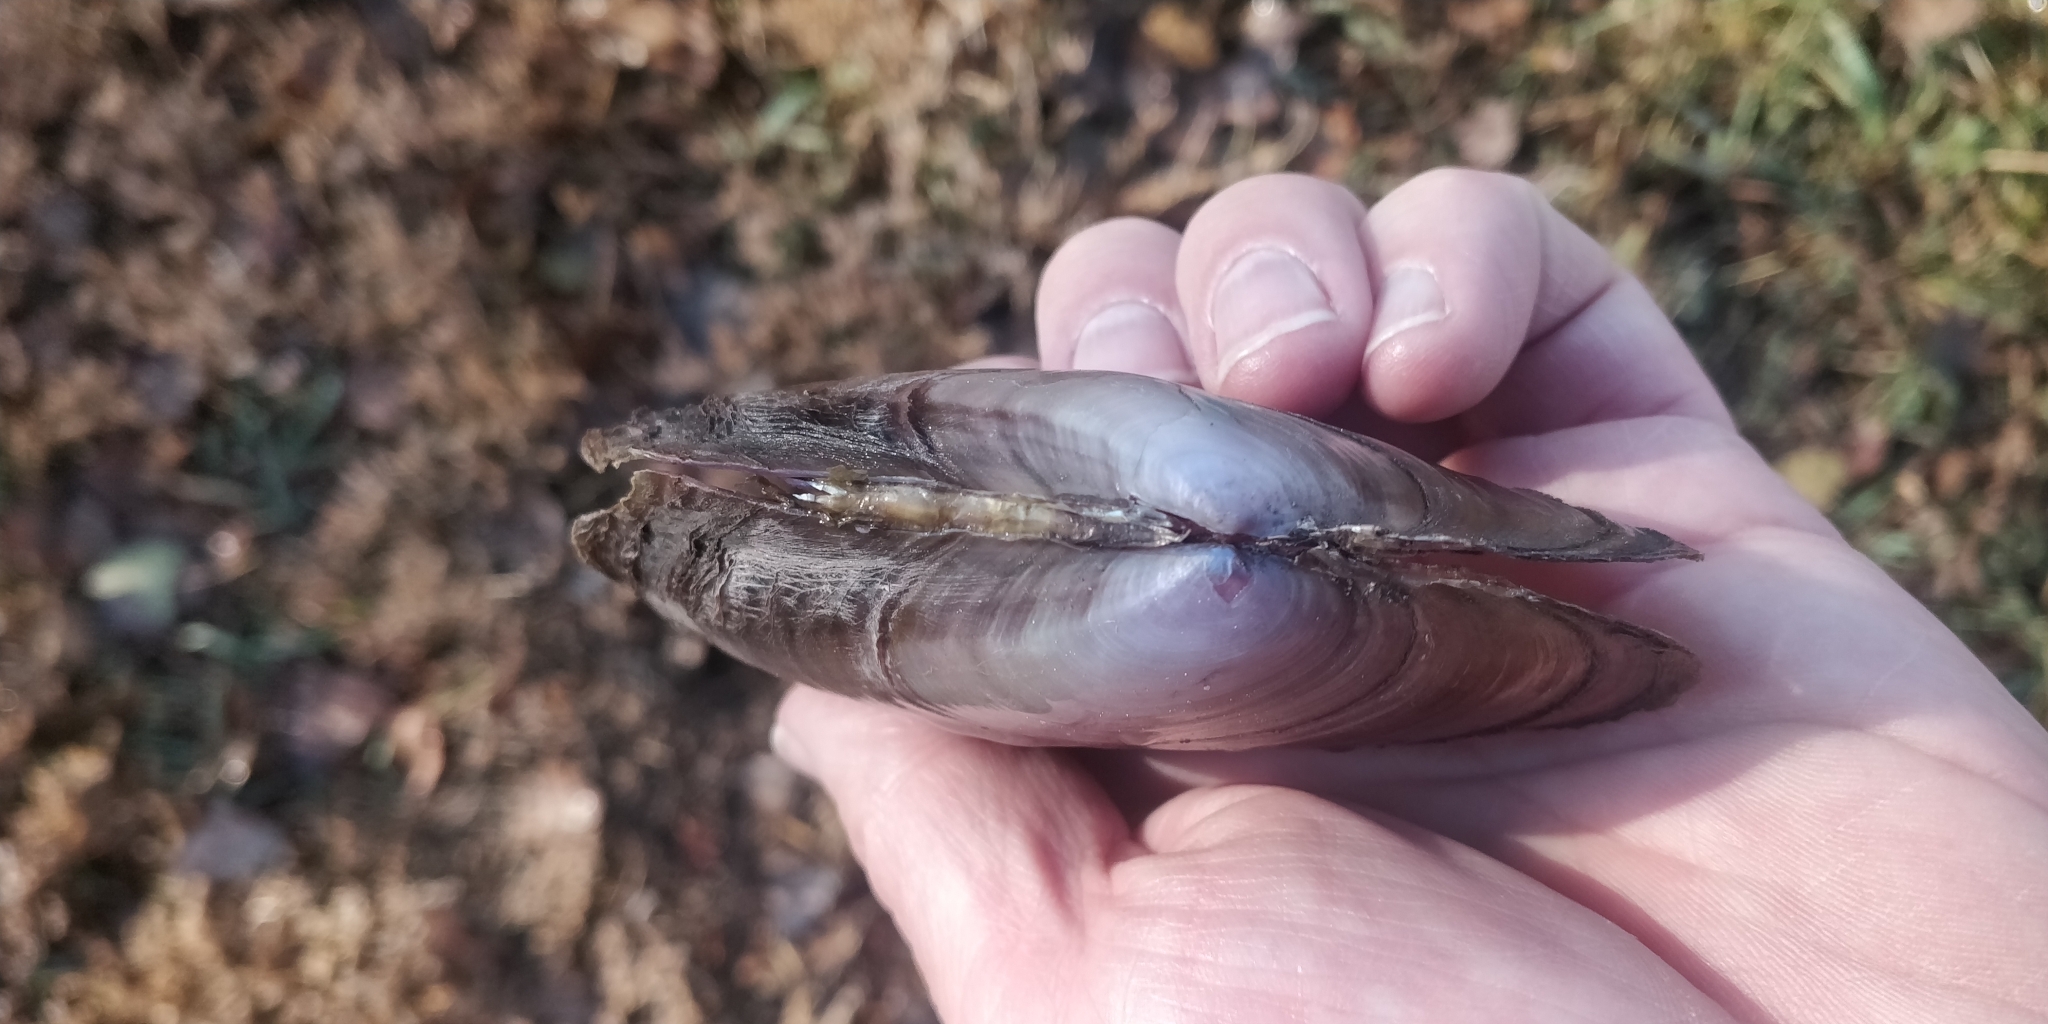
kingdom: Animalia
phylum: Mollusca
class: Bivalvia
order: Unionida
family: Unionidae
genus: Potamilus
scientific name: Potamilus ohiensis
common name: Pink papershell
